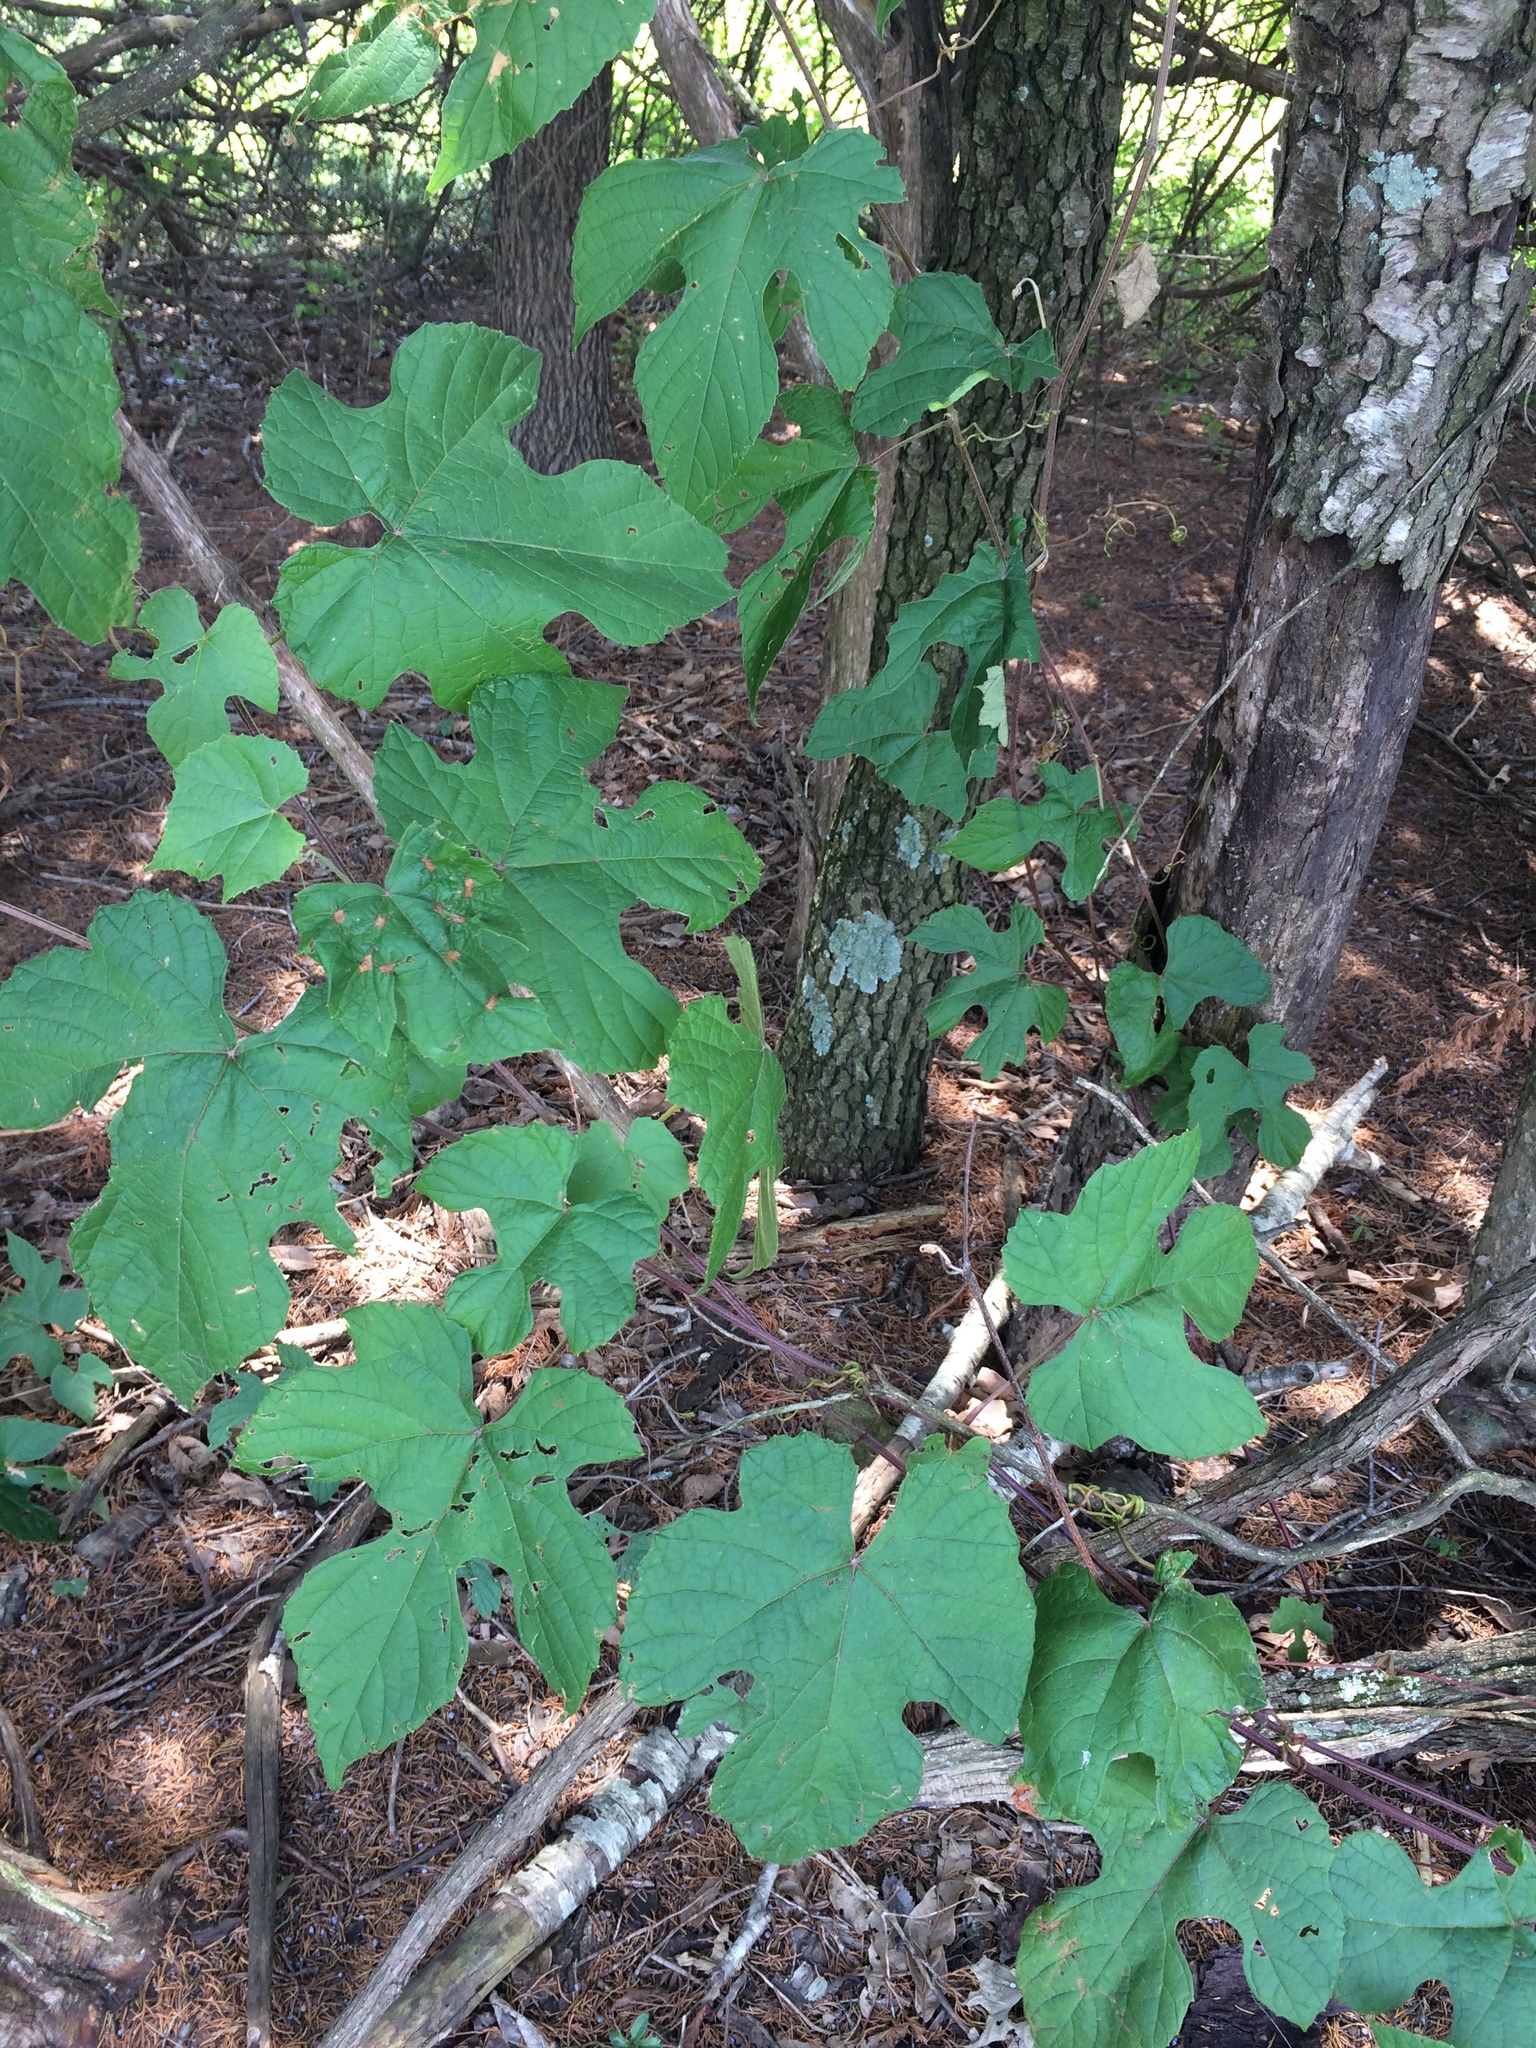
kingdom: Plantae
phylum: Tracheophyta
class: Magnoliopsida
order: Vitales
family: Vitaceae
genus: Vitis
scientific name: Vitis aestivalis
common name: Pigeon grape
